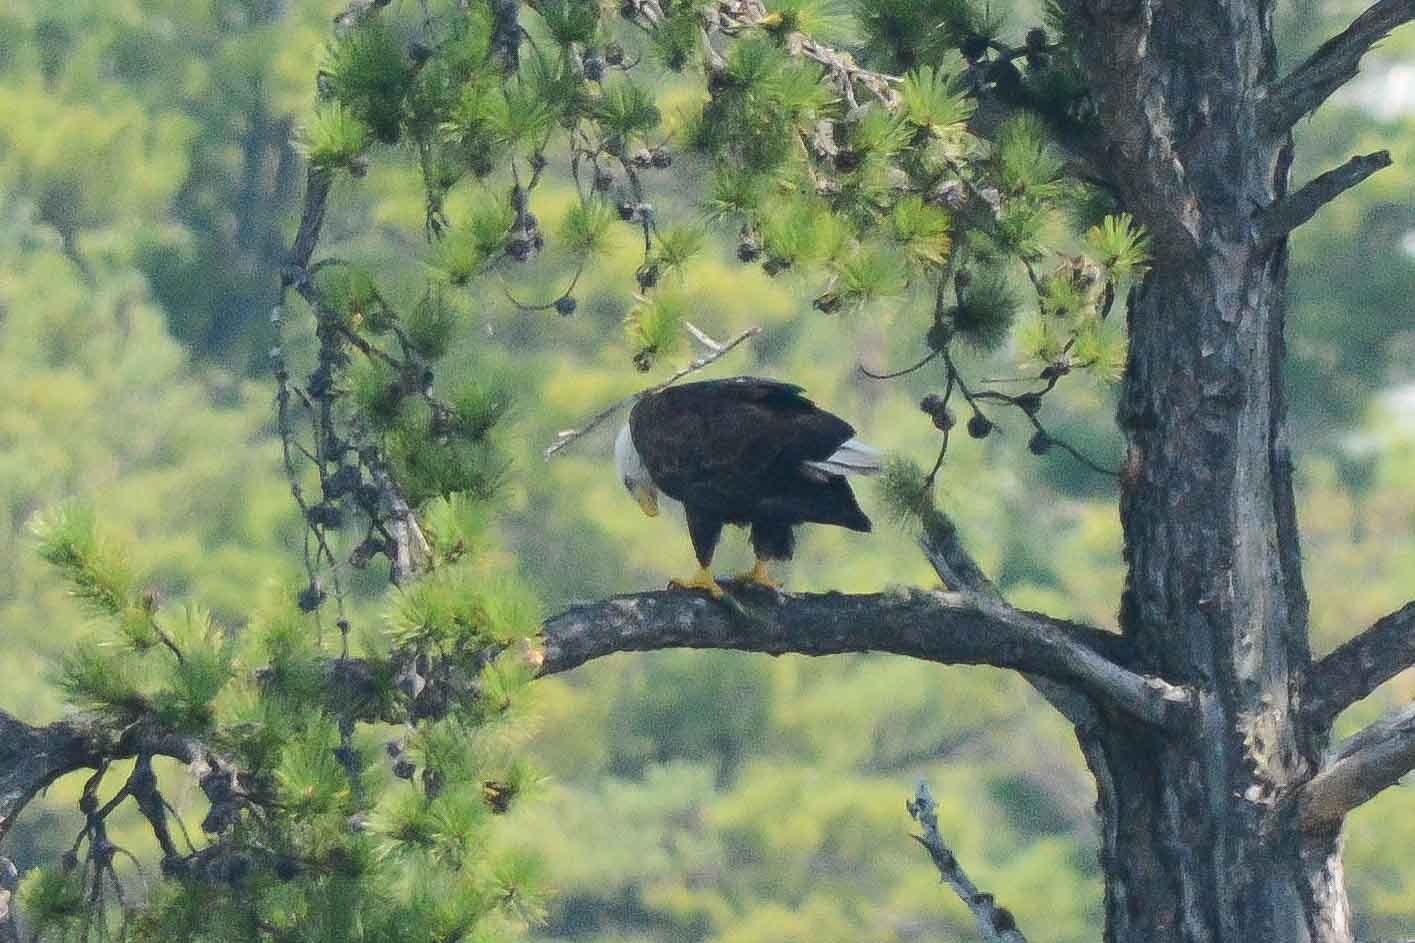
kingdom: Animalia
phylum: Chordata
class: Aves
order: Accipitriformes
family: Accipitridae
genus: Haliaeetus
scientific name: Haliaeetus leucocephalus
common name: Bald eagle
